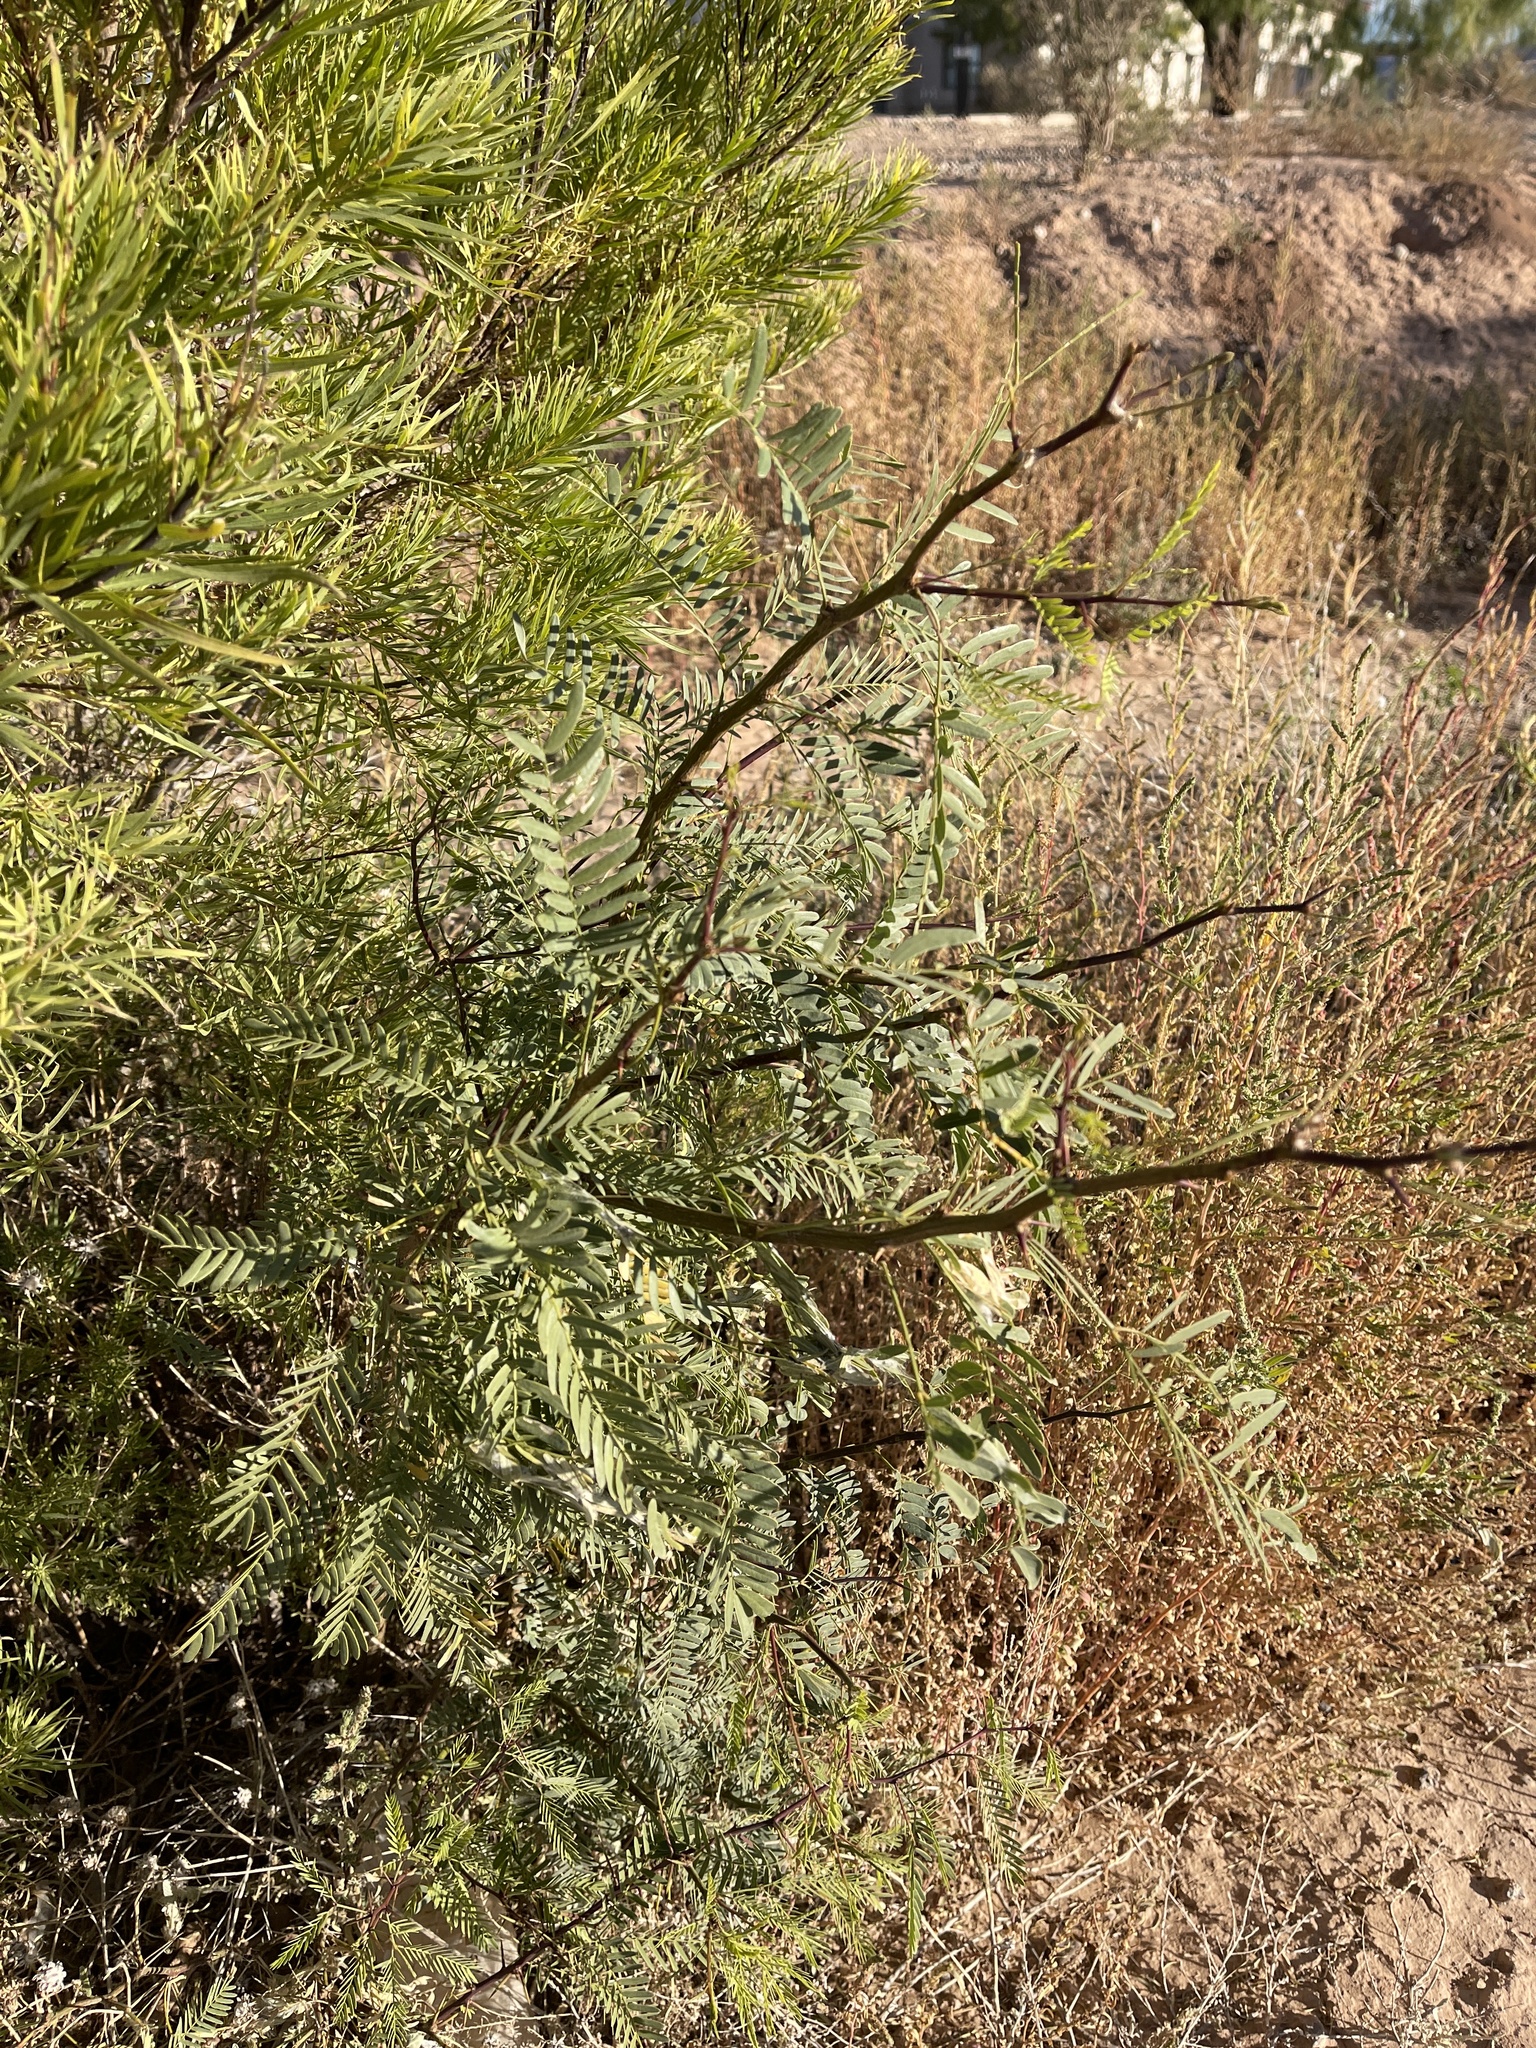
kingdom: Plantae
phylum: Tracheophyta
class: Magnoliopsida
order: Fabales
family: Fabaceae
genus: Prosopis
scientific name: Prosopis glandulosa
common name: Honey mesquite
